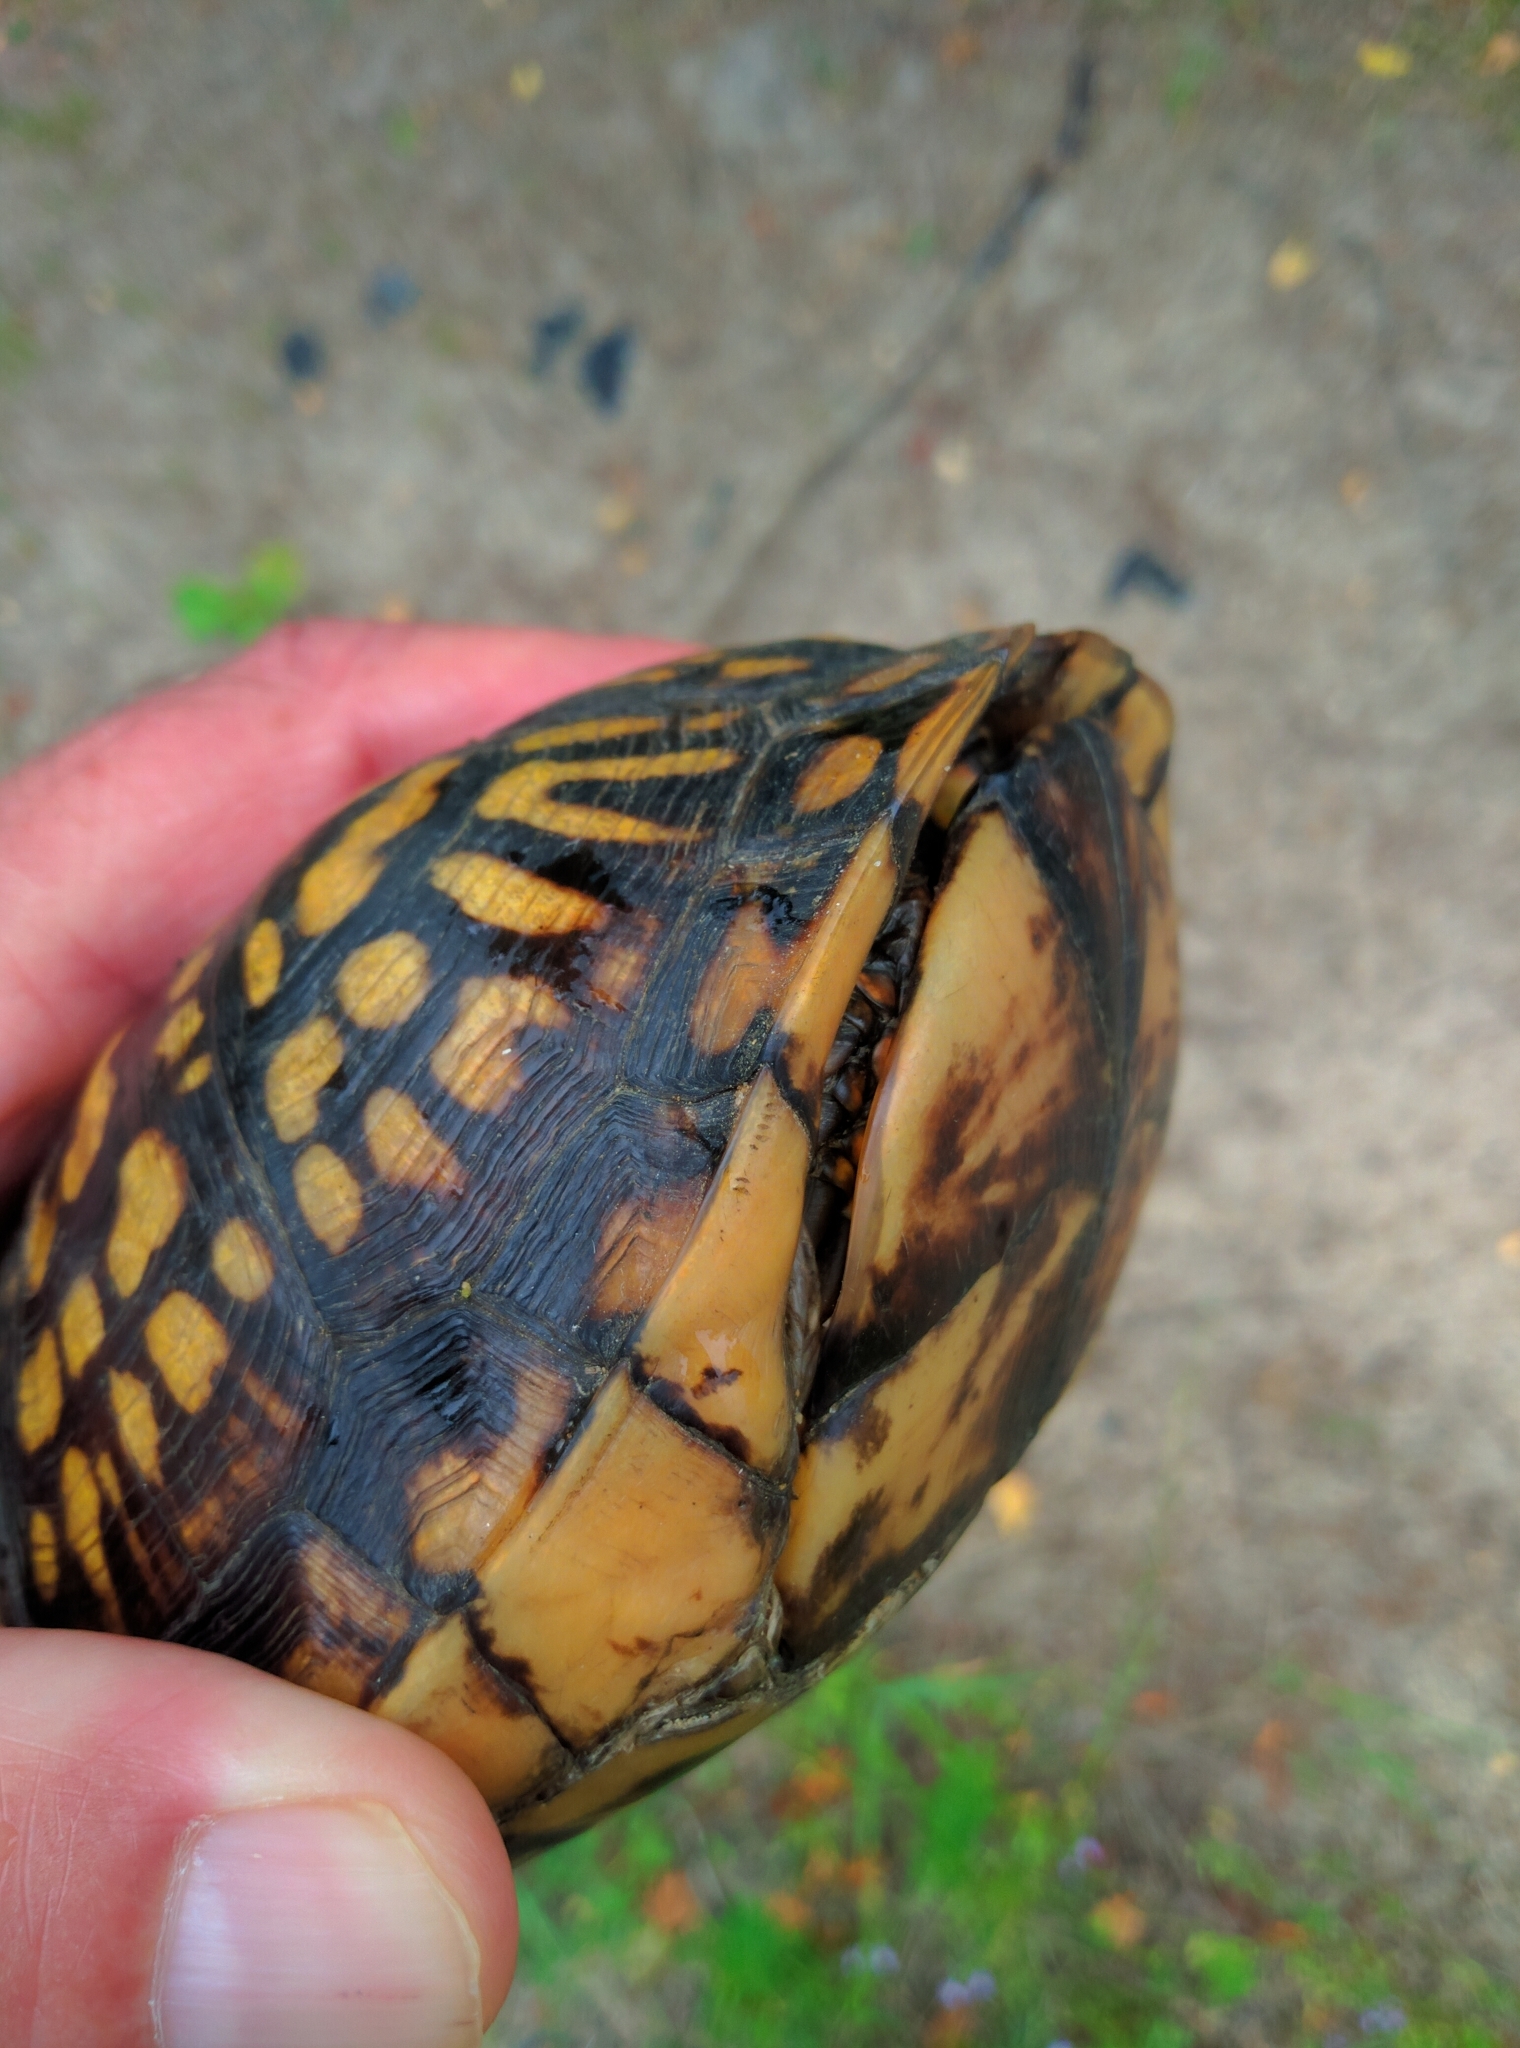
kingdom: Animalia
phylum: Chordata
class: Testudines
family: Emydidae
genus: Terrapene
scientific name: Terrapene carolina
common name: Common box turtle
